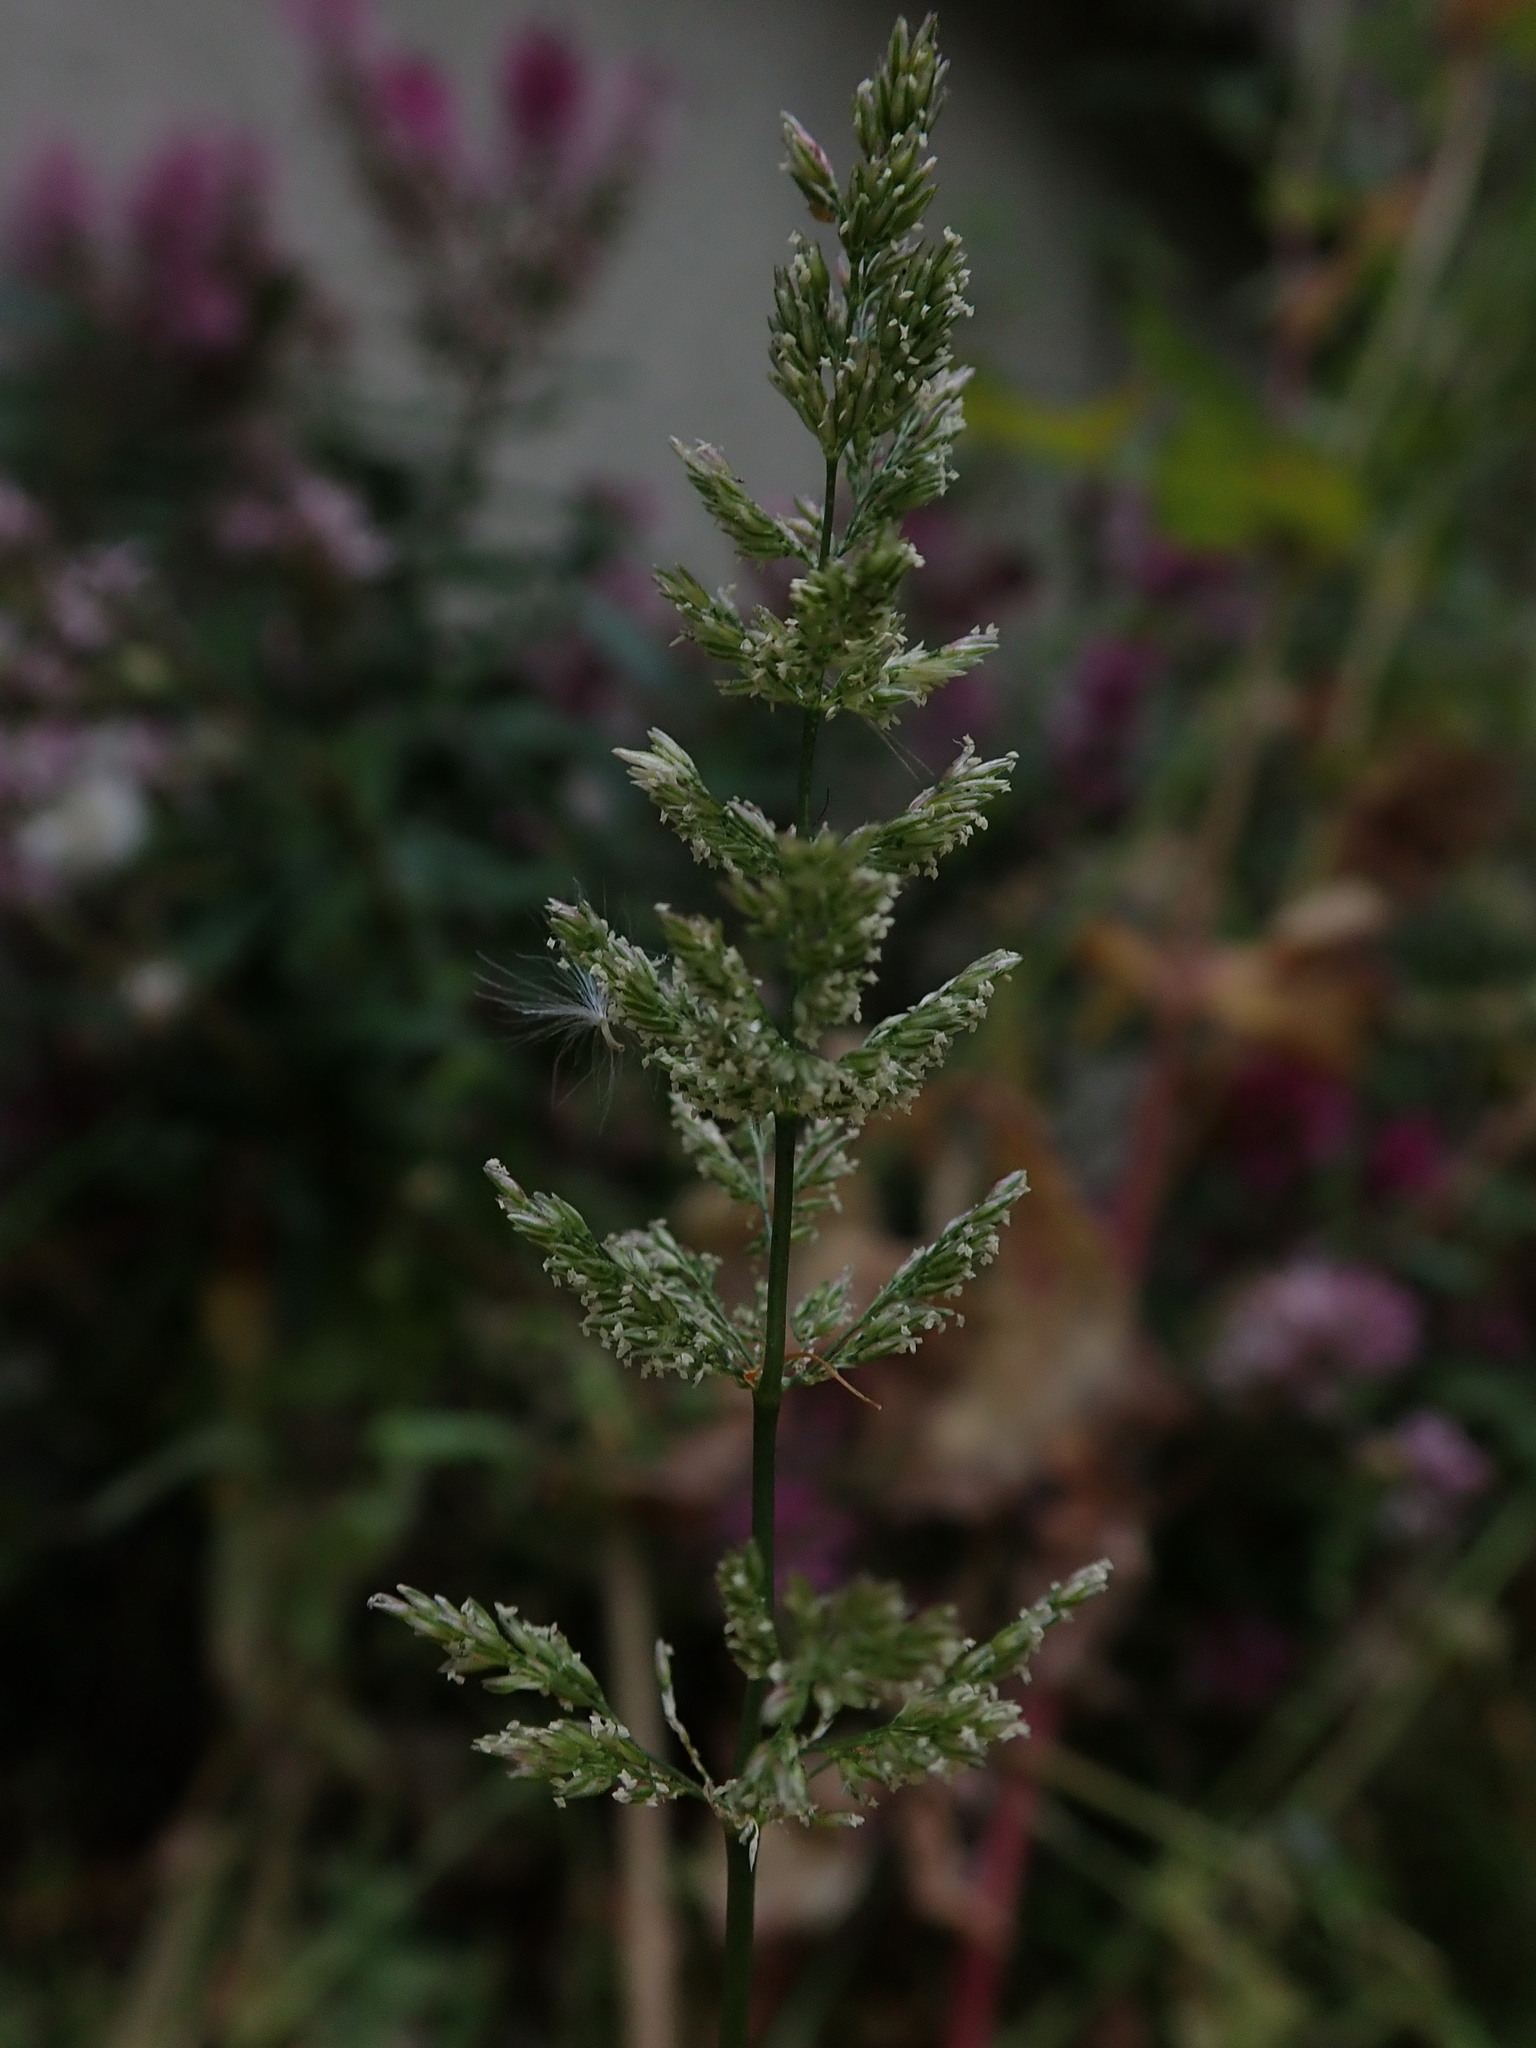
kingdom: Plantae
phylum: Tracheophyta
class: Liliopsida
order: Poales
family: Poaceae
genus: Polypogon
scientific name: Polypogon viridis
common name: Water bent
